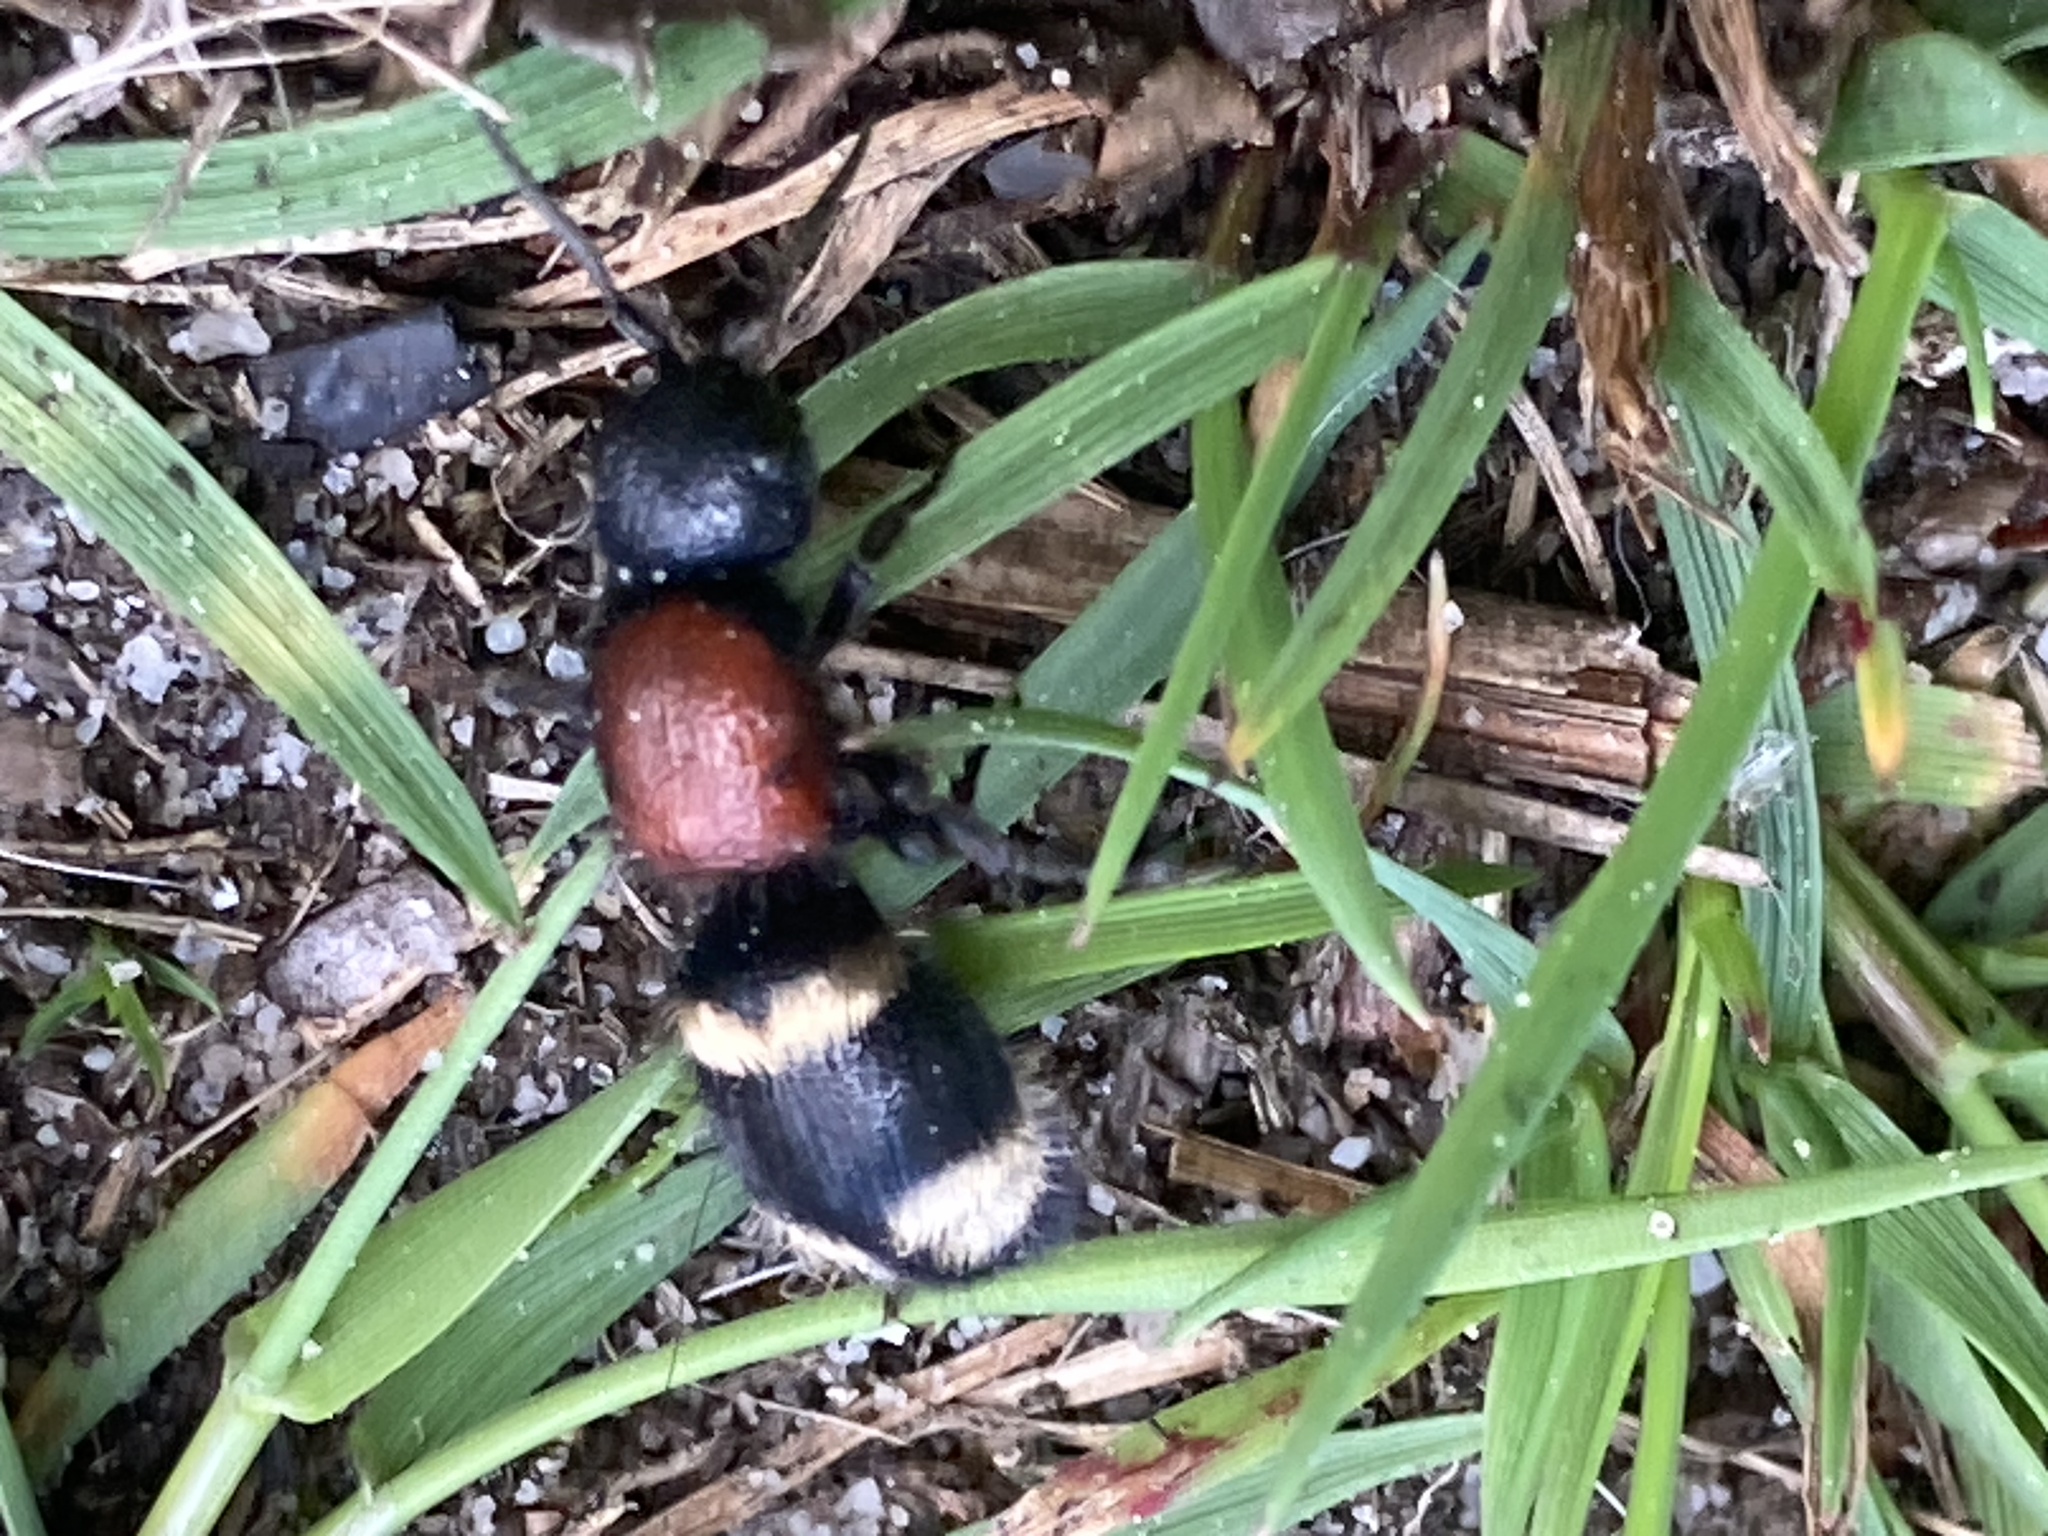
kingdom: Animalia
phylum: Arthropoda
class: Insecta
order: Hymenoptera
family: Mutillidae
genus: Mutilla
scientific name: Mutilla europaea
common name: Large velvet ant
